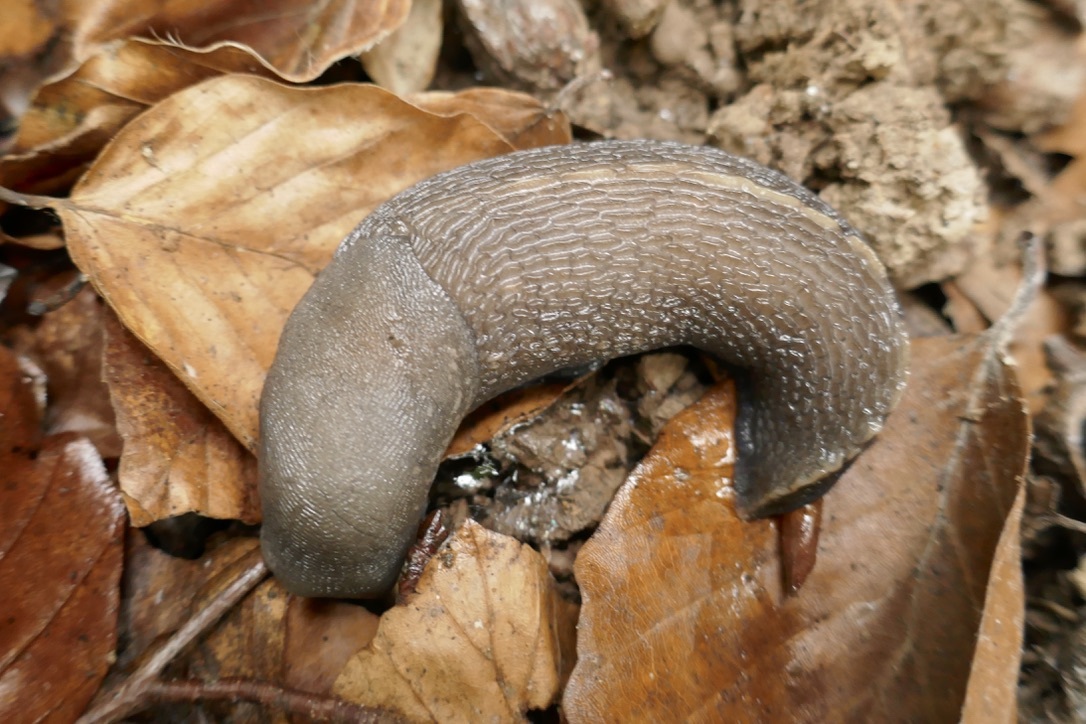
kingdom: Animalia
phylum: Mollusca
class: Gastropoda
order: Stylommatophora
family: Limacidae
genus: Limax
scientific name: Limax cinereoniger
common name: Ash-black slug
